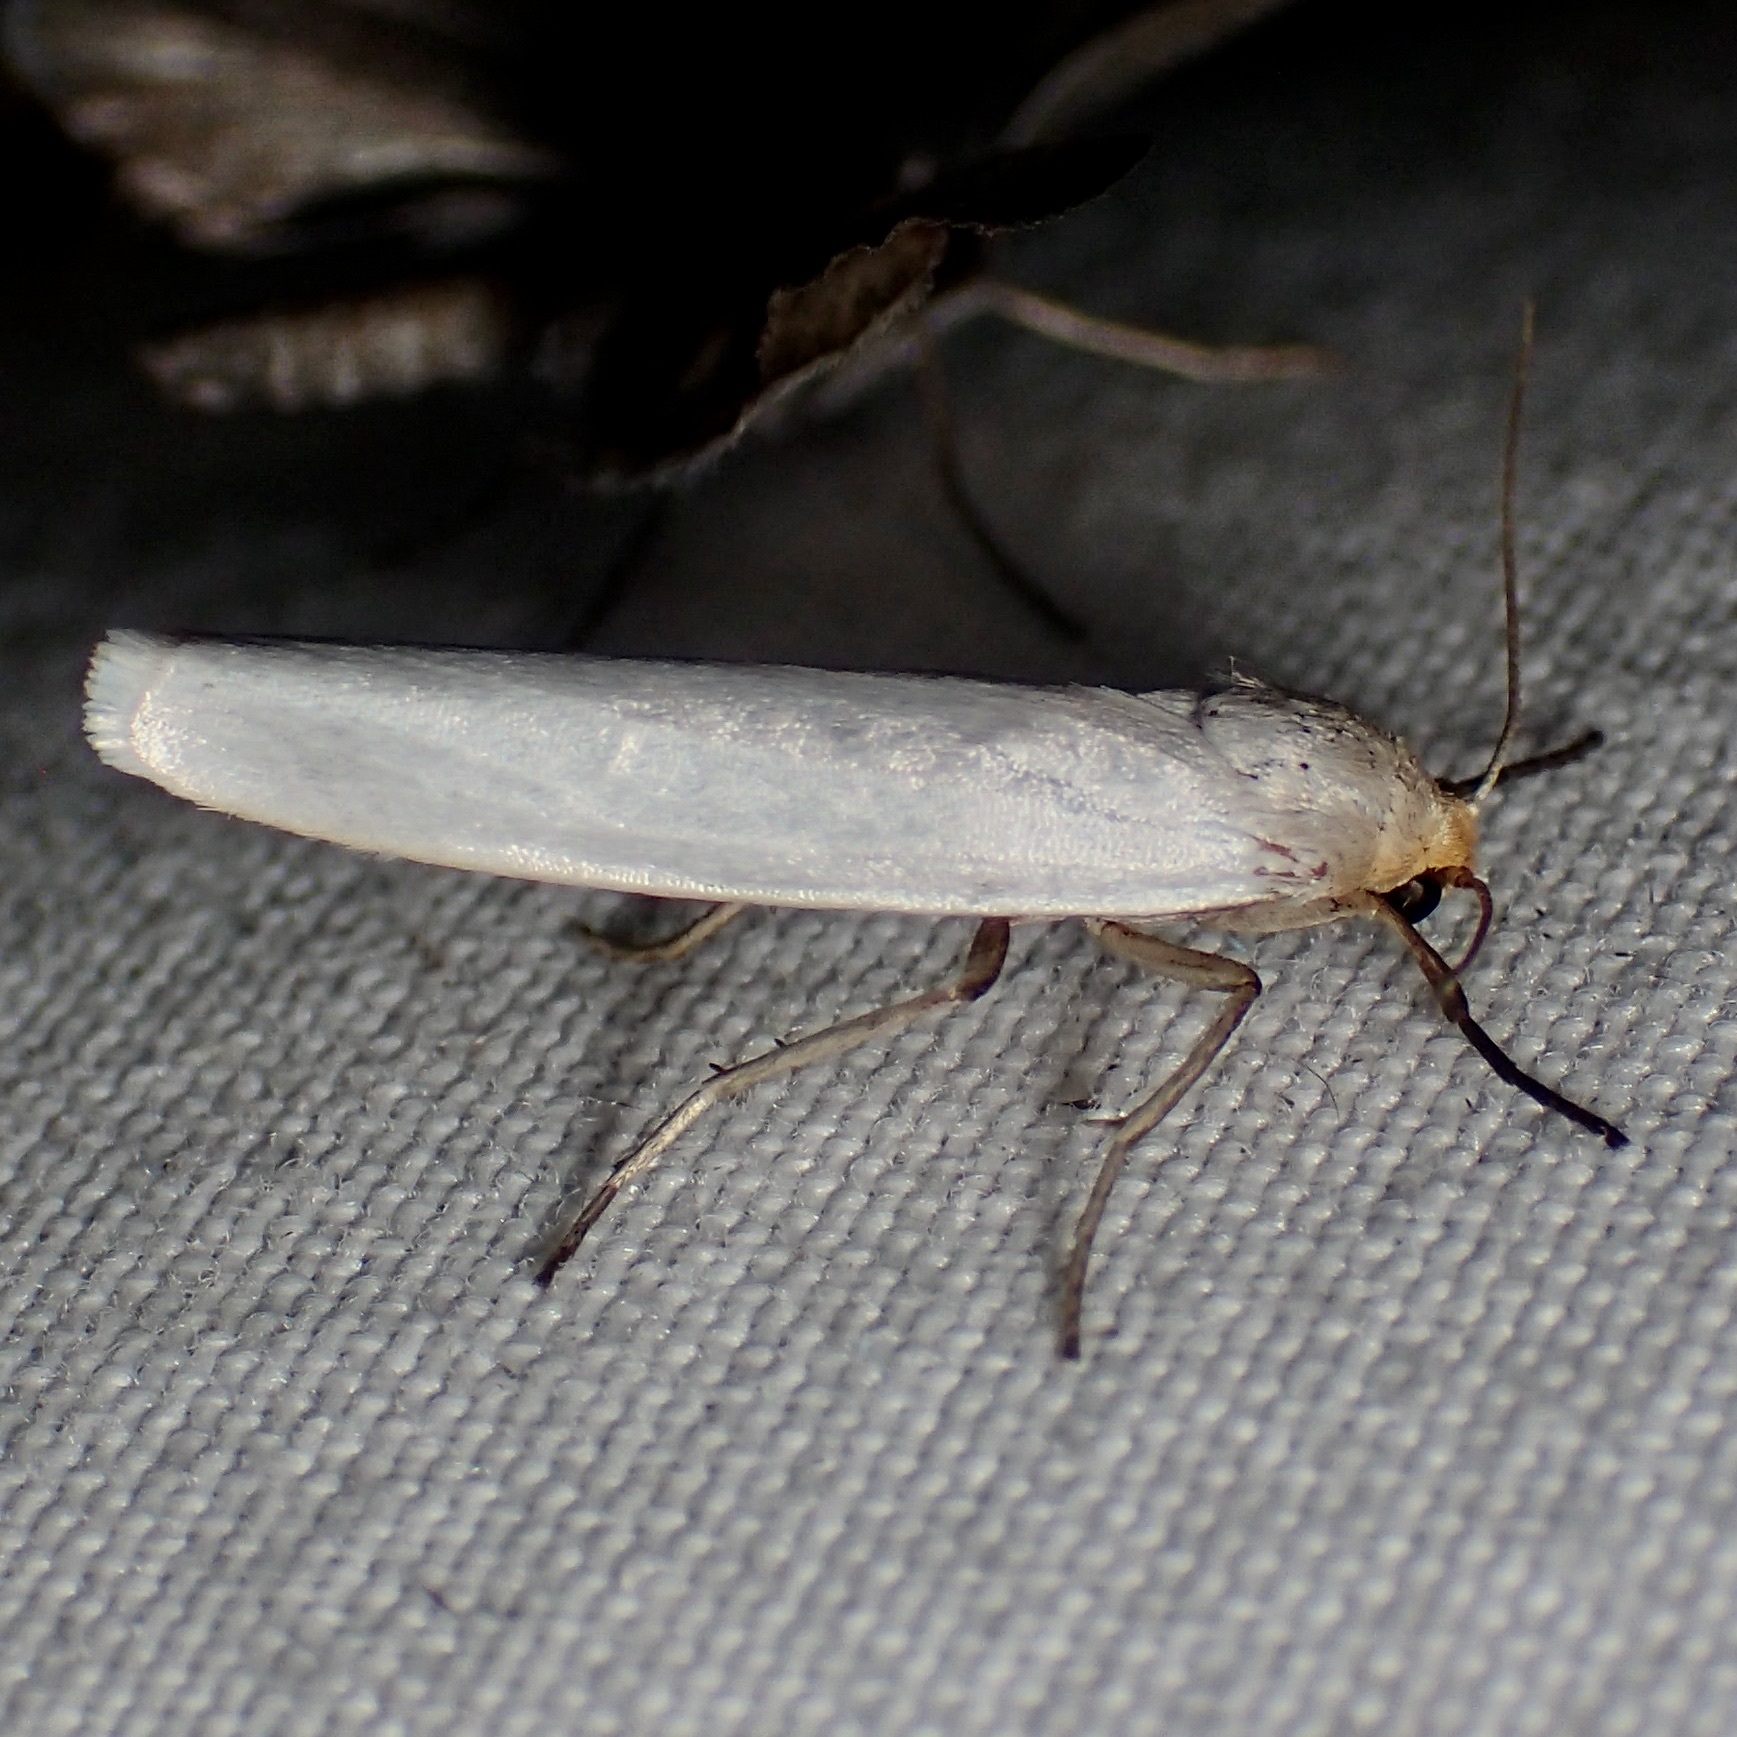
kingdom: Animalia
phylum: Arthropoda
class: Insecta
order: Lepidoptera
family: Erebidae
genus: Crambidia
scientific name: Crambidia cephalica
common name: Yellow-headed lichen moth
